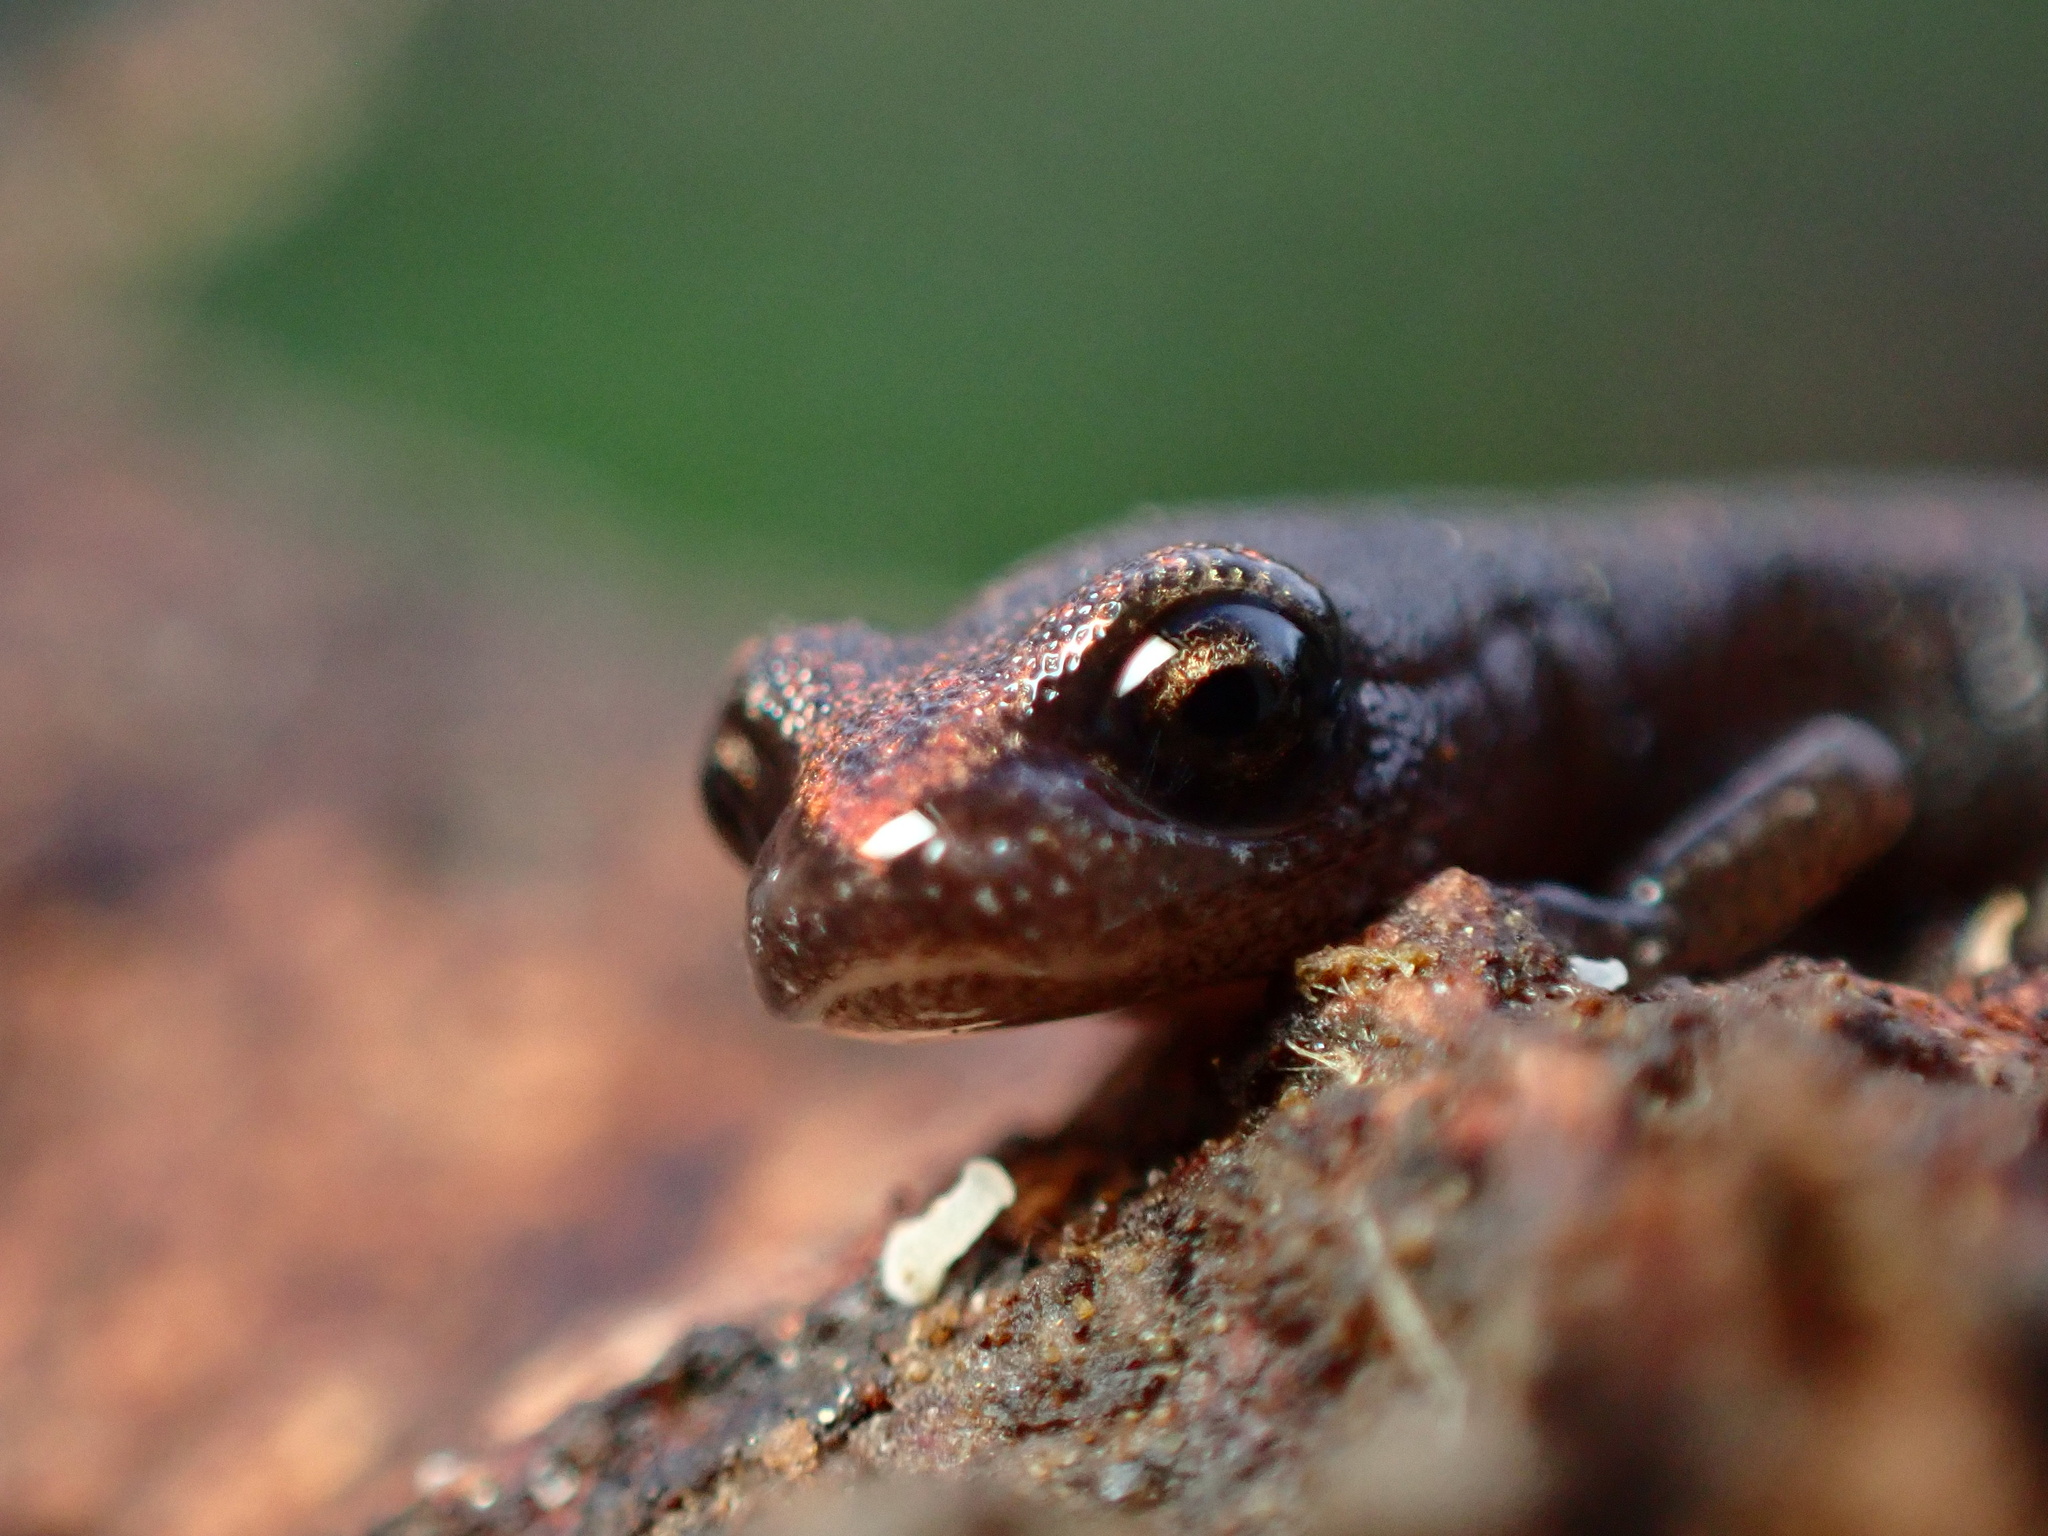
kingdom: Animalia
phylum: Chordata
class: Amphibia
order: Caudata
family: Plethodontidae
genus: Batrachoseps
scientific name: Batrachoseps major
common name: Garden slender salamander
